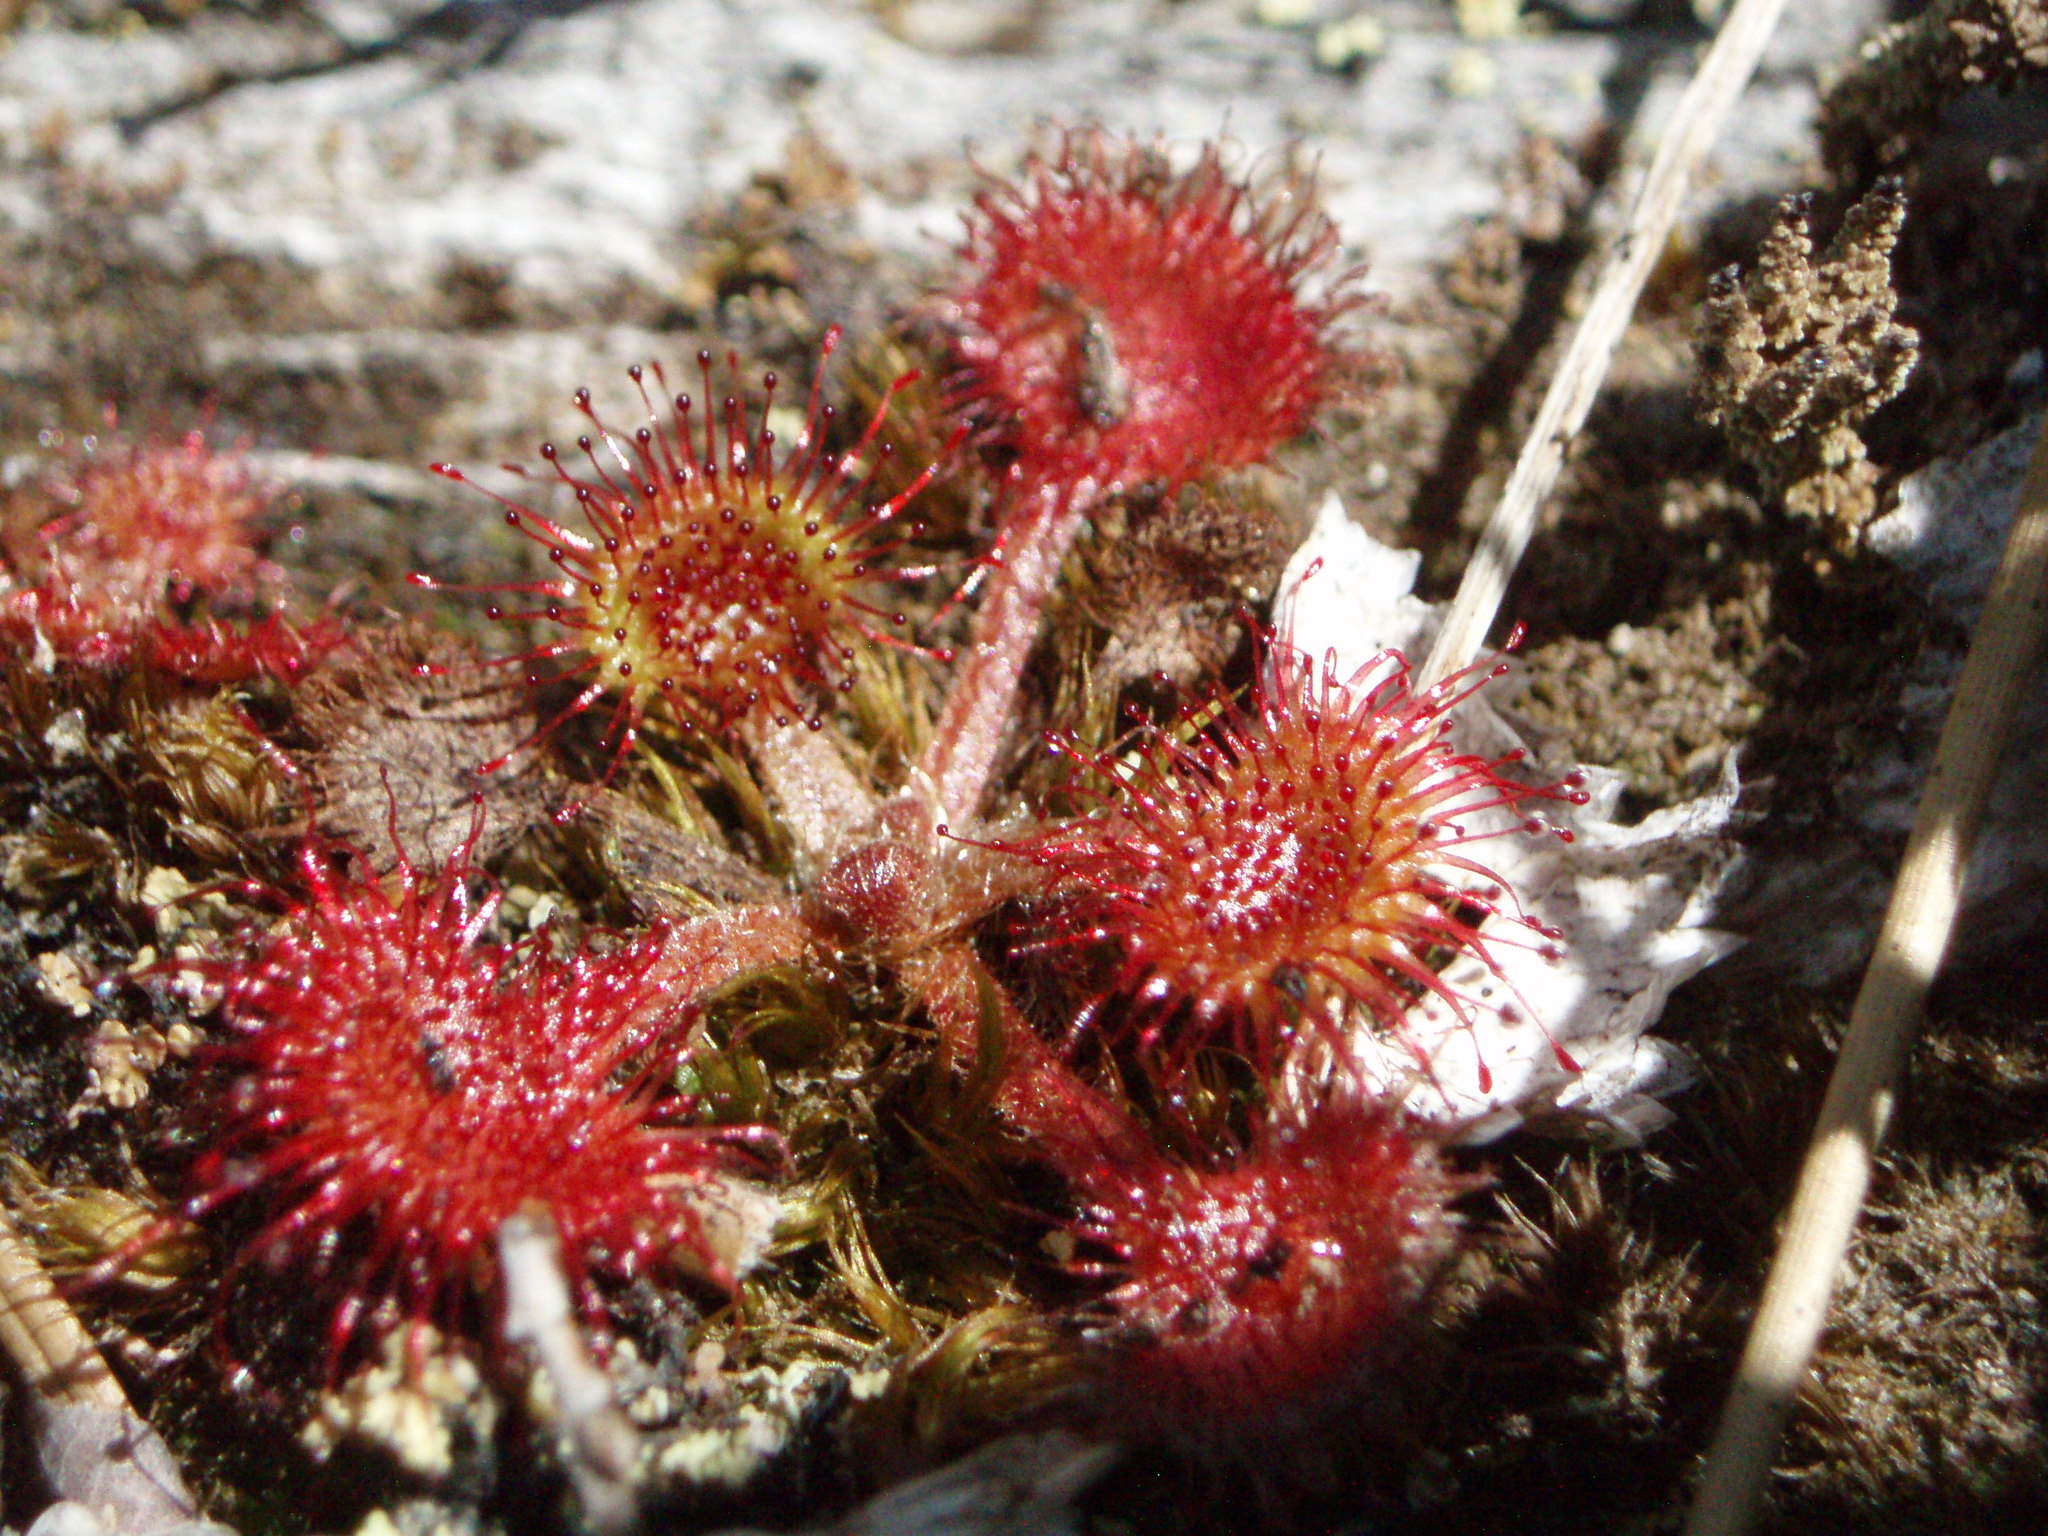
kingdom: Plantae
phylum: Tracheophyta
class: Magnoliopsida
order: Caryophyllales
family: Droseraceae
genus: Drosera
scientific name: Drosera rotundifolia
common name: Round-leaved sundew
